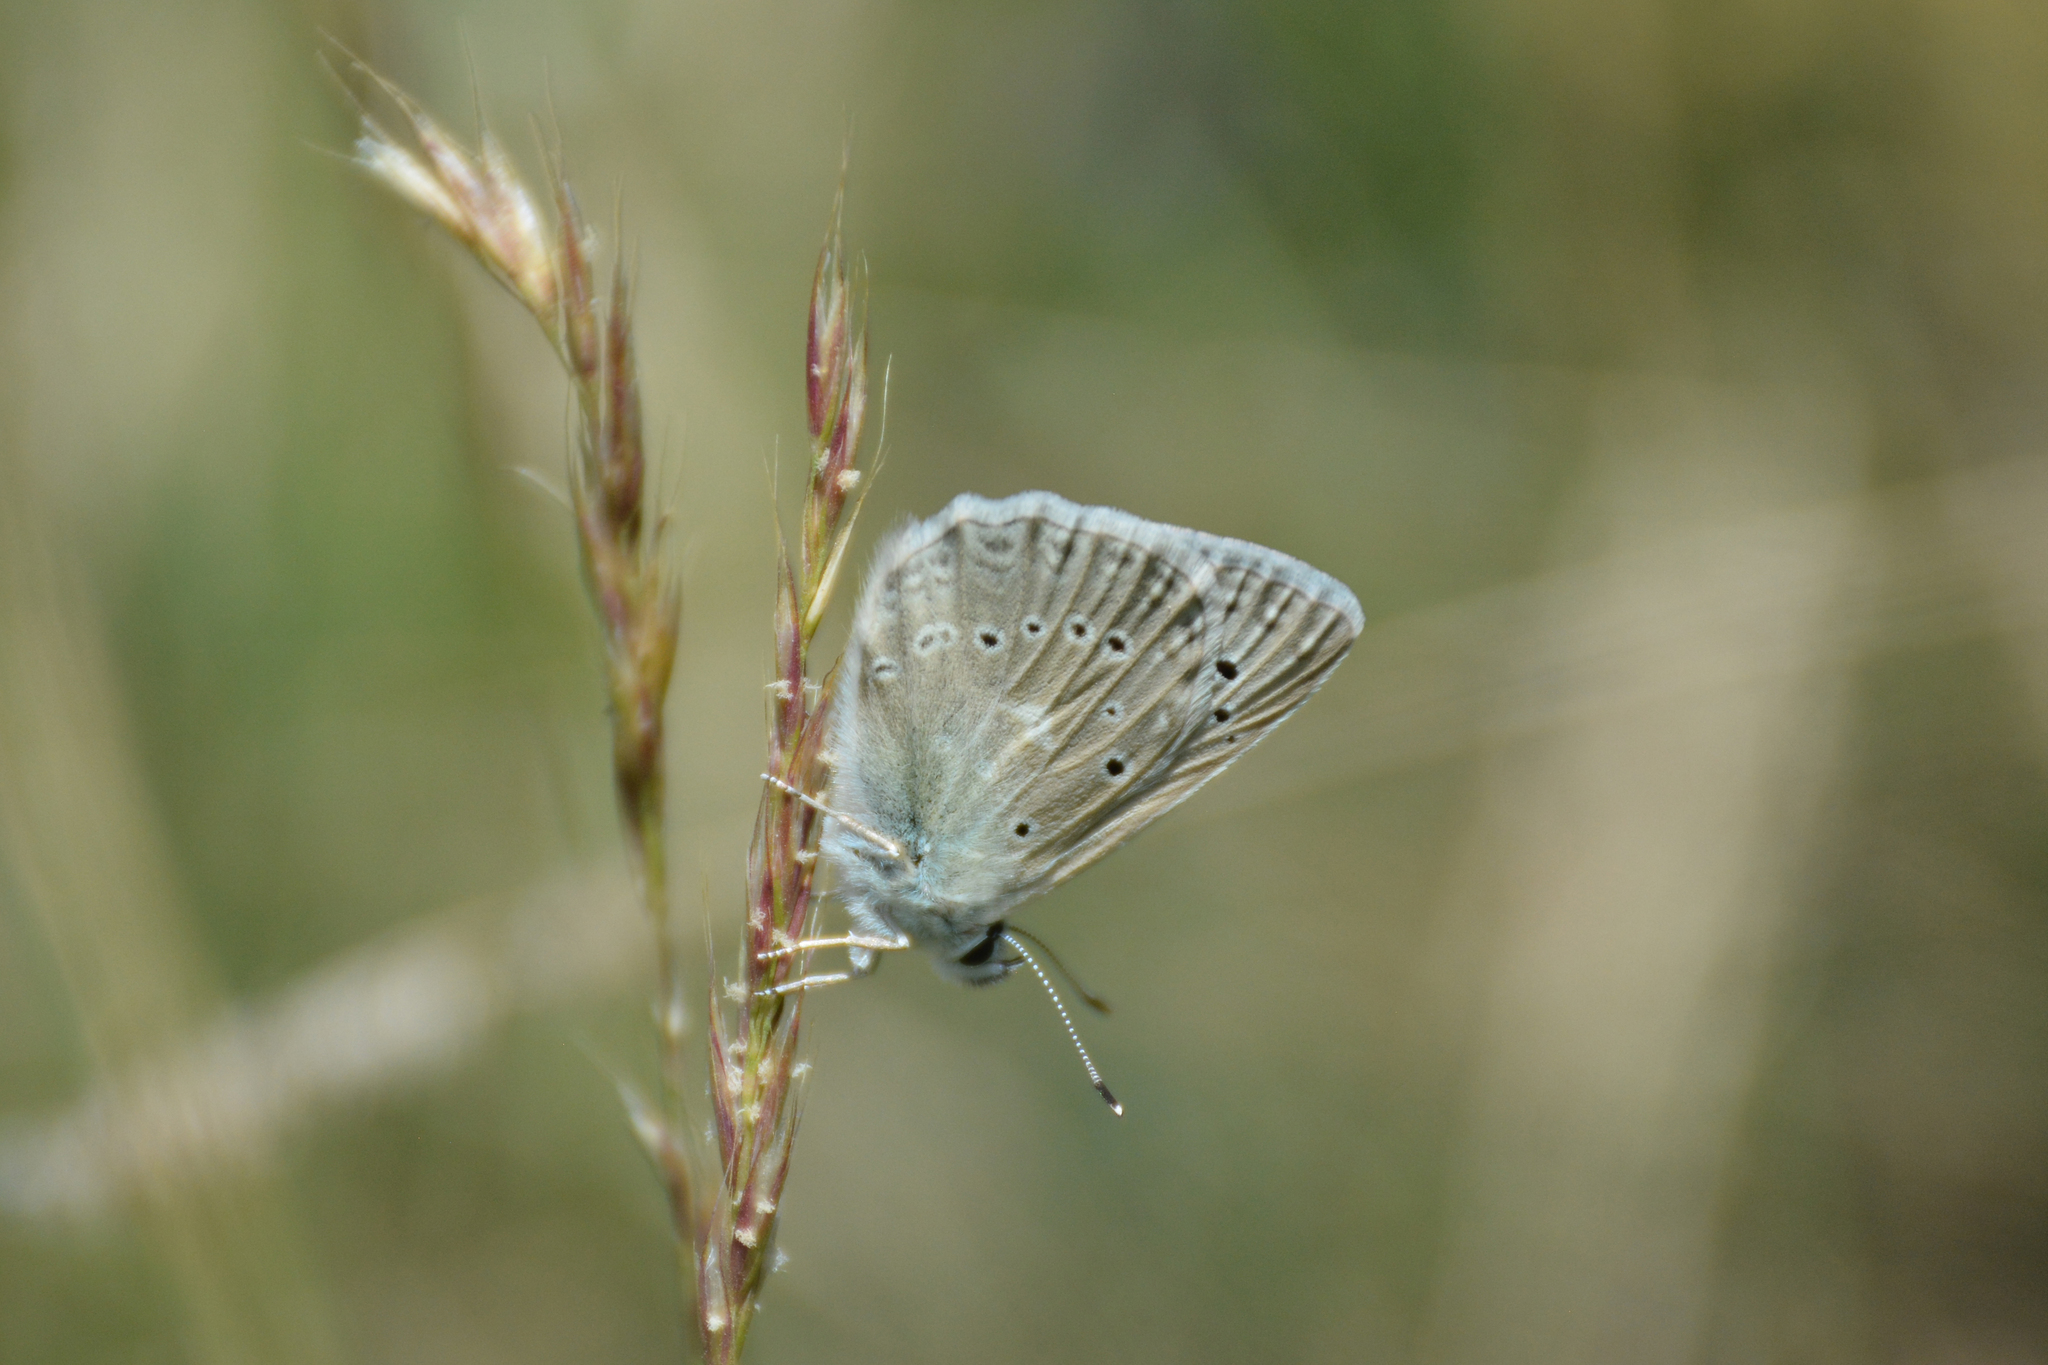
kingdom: Animalia
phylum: Arthropoda
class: Insecta
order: Lepidoptera
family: Lycaenidae
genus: Polyommatus
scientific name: Polyommatus daphnis
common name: Meleager's blue
